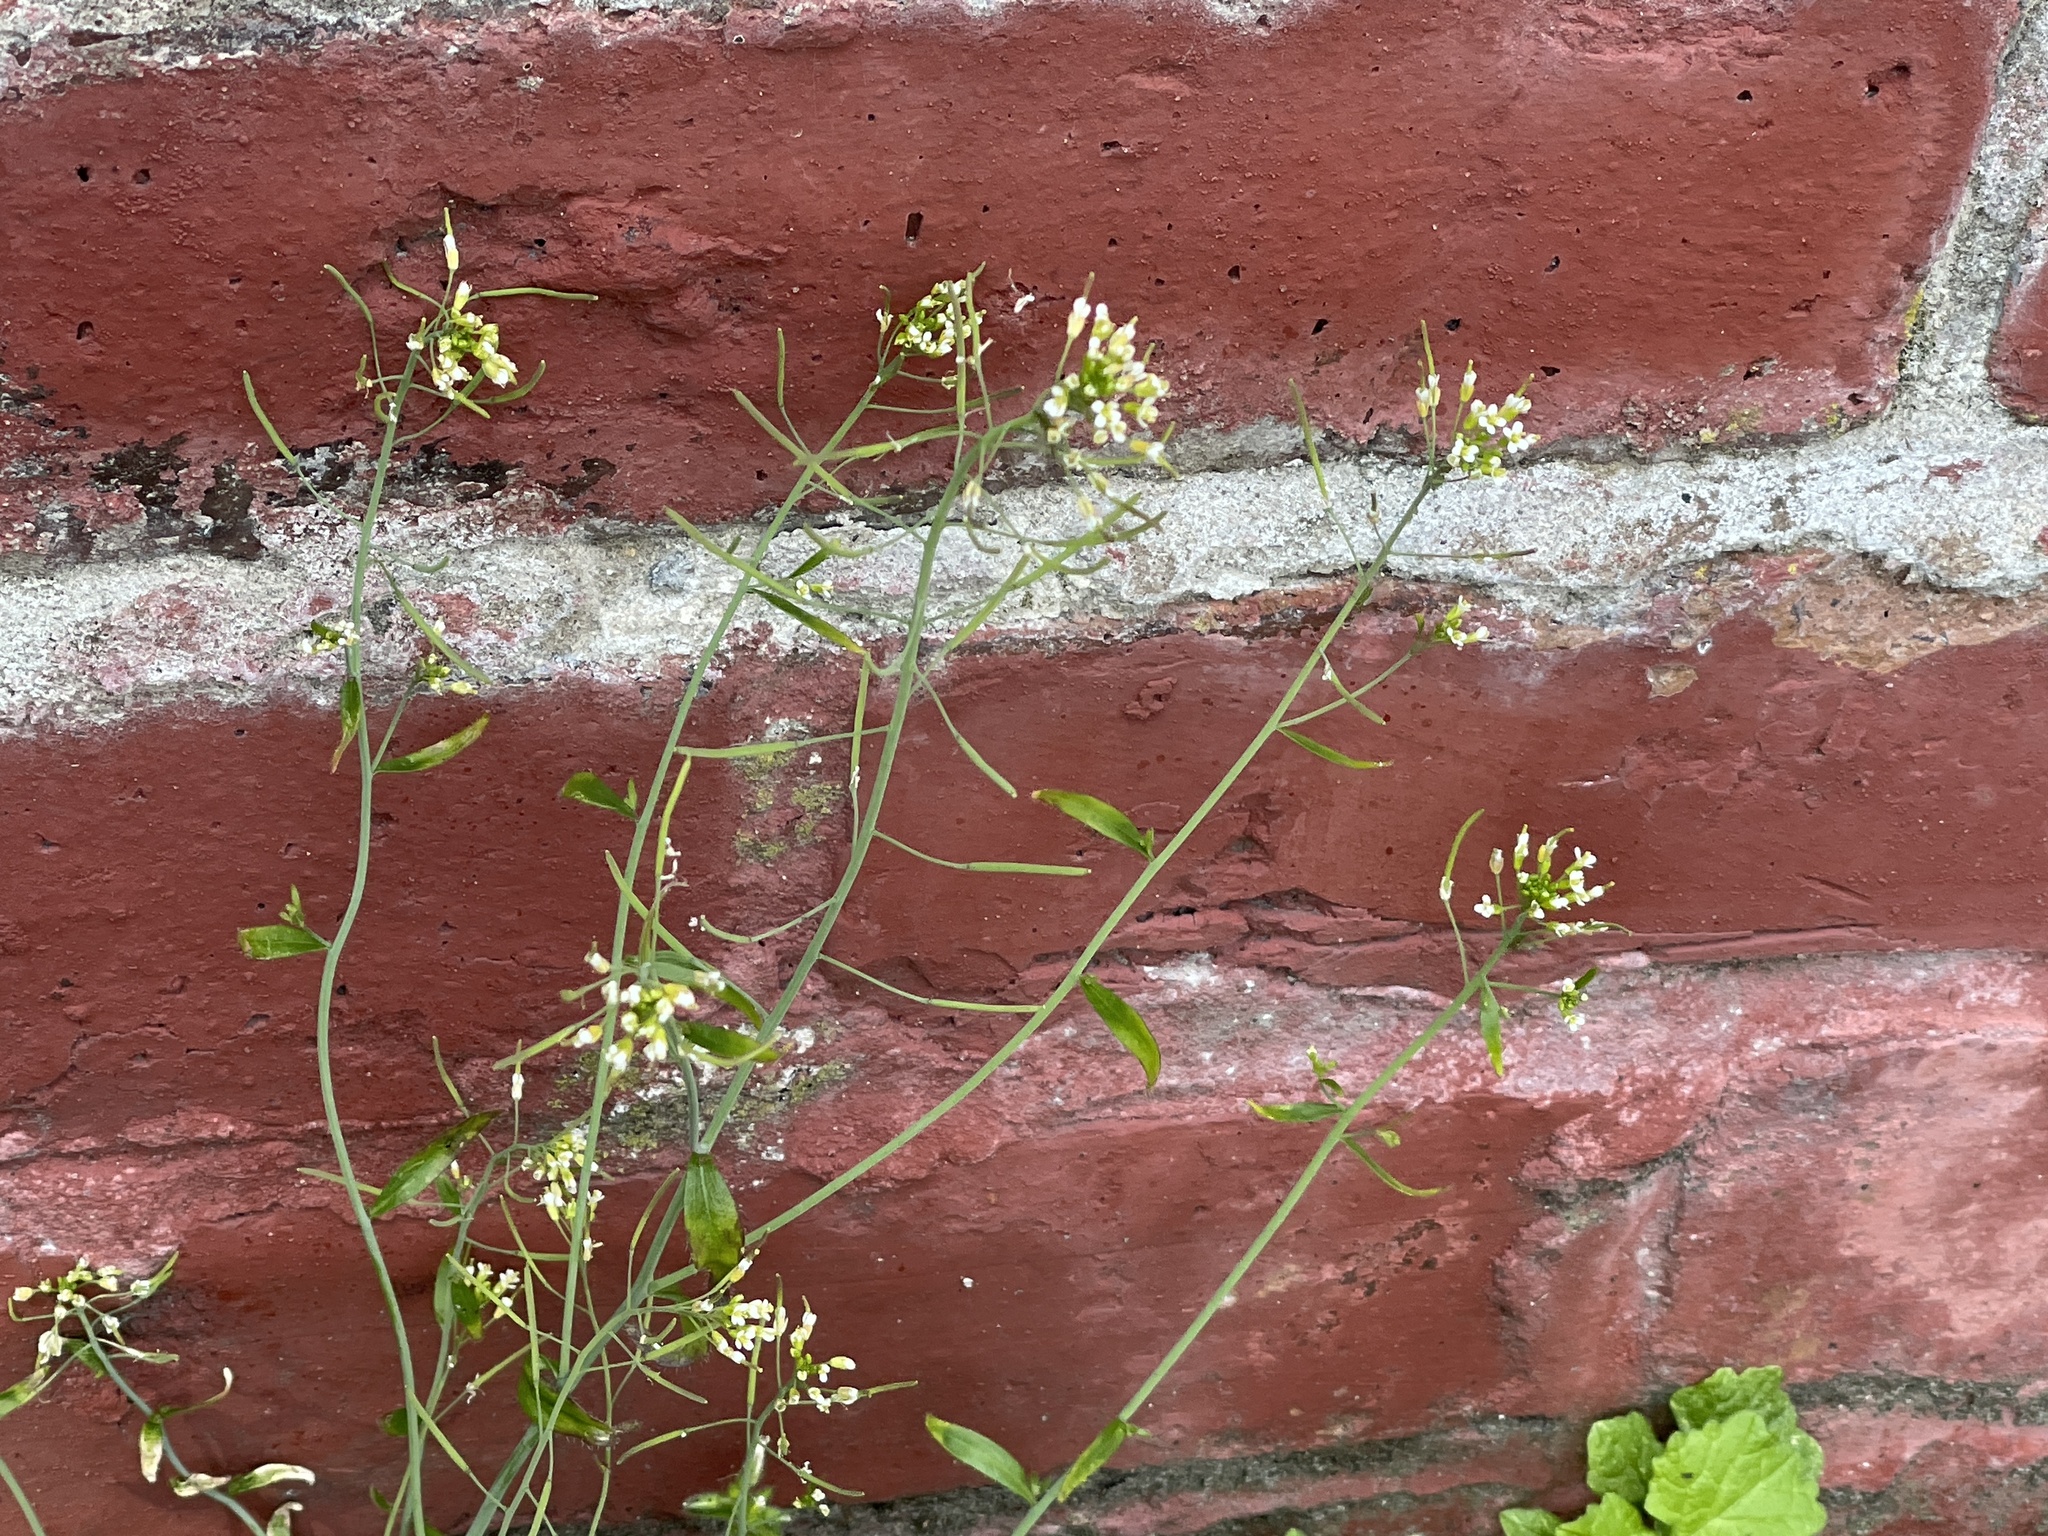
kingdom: Plantae
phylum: Tracheophyta
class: Magnoliopsida
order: Brassicales
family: Brassicaceae
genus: Arabidopsis
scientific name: Arabidopsis thaliana
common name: Thale cress
